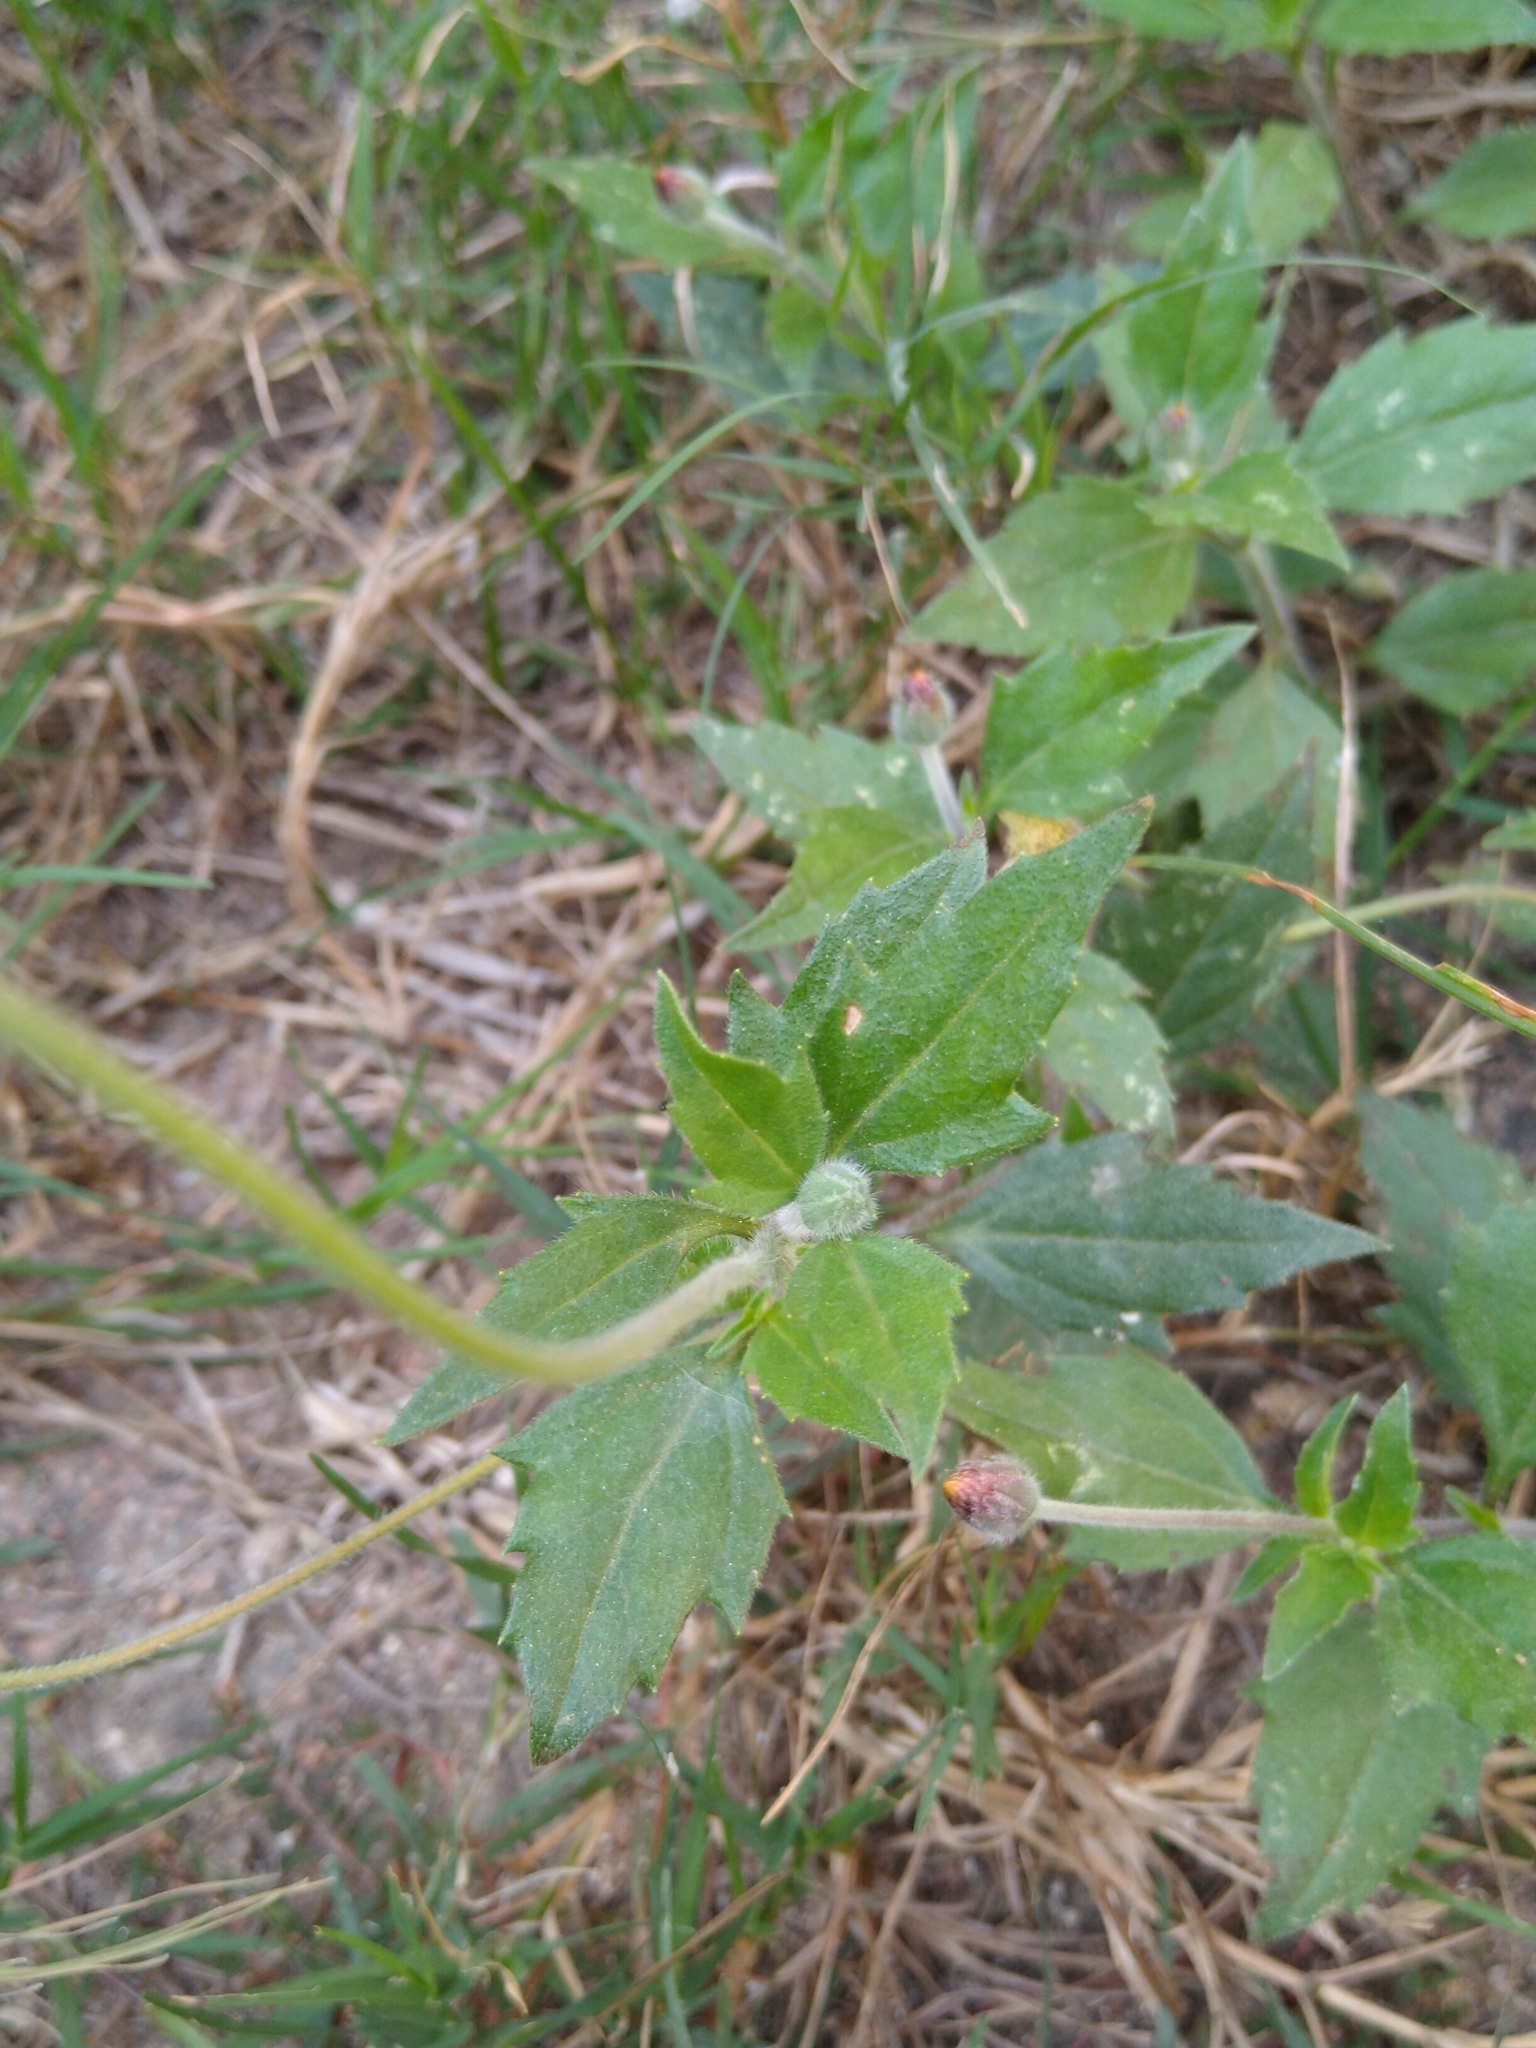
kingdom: Plantae
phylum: Tracheophyta
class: Magnoliopsida
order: Asterales
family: Asteraceae
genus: Tridax
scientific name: Tridax procumbens
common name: Coatbuttons
